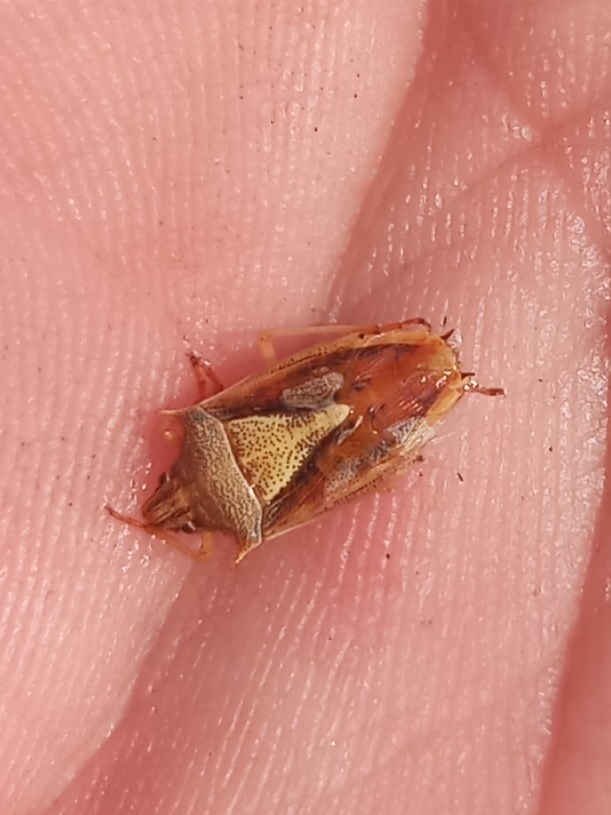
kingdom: Animalia
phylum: Arthropoda
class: Insecta
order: Hemiptera
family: Pentatomidae
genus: Oebalus
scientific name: Oebalus pugnax
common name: Rice stink bug
